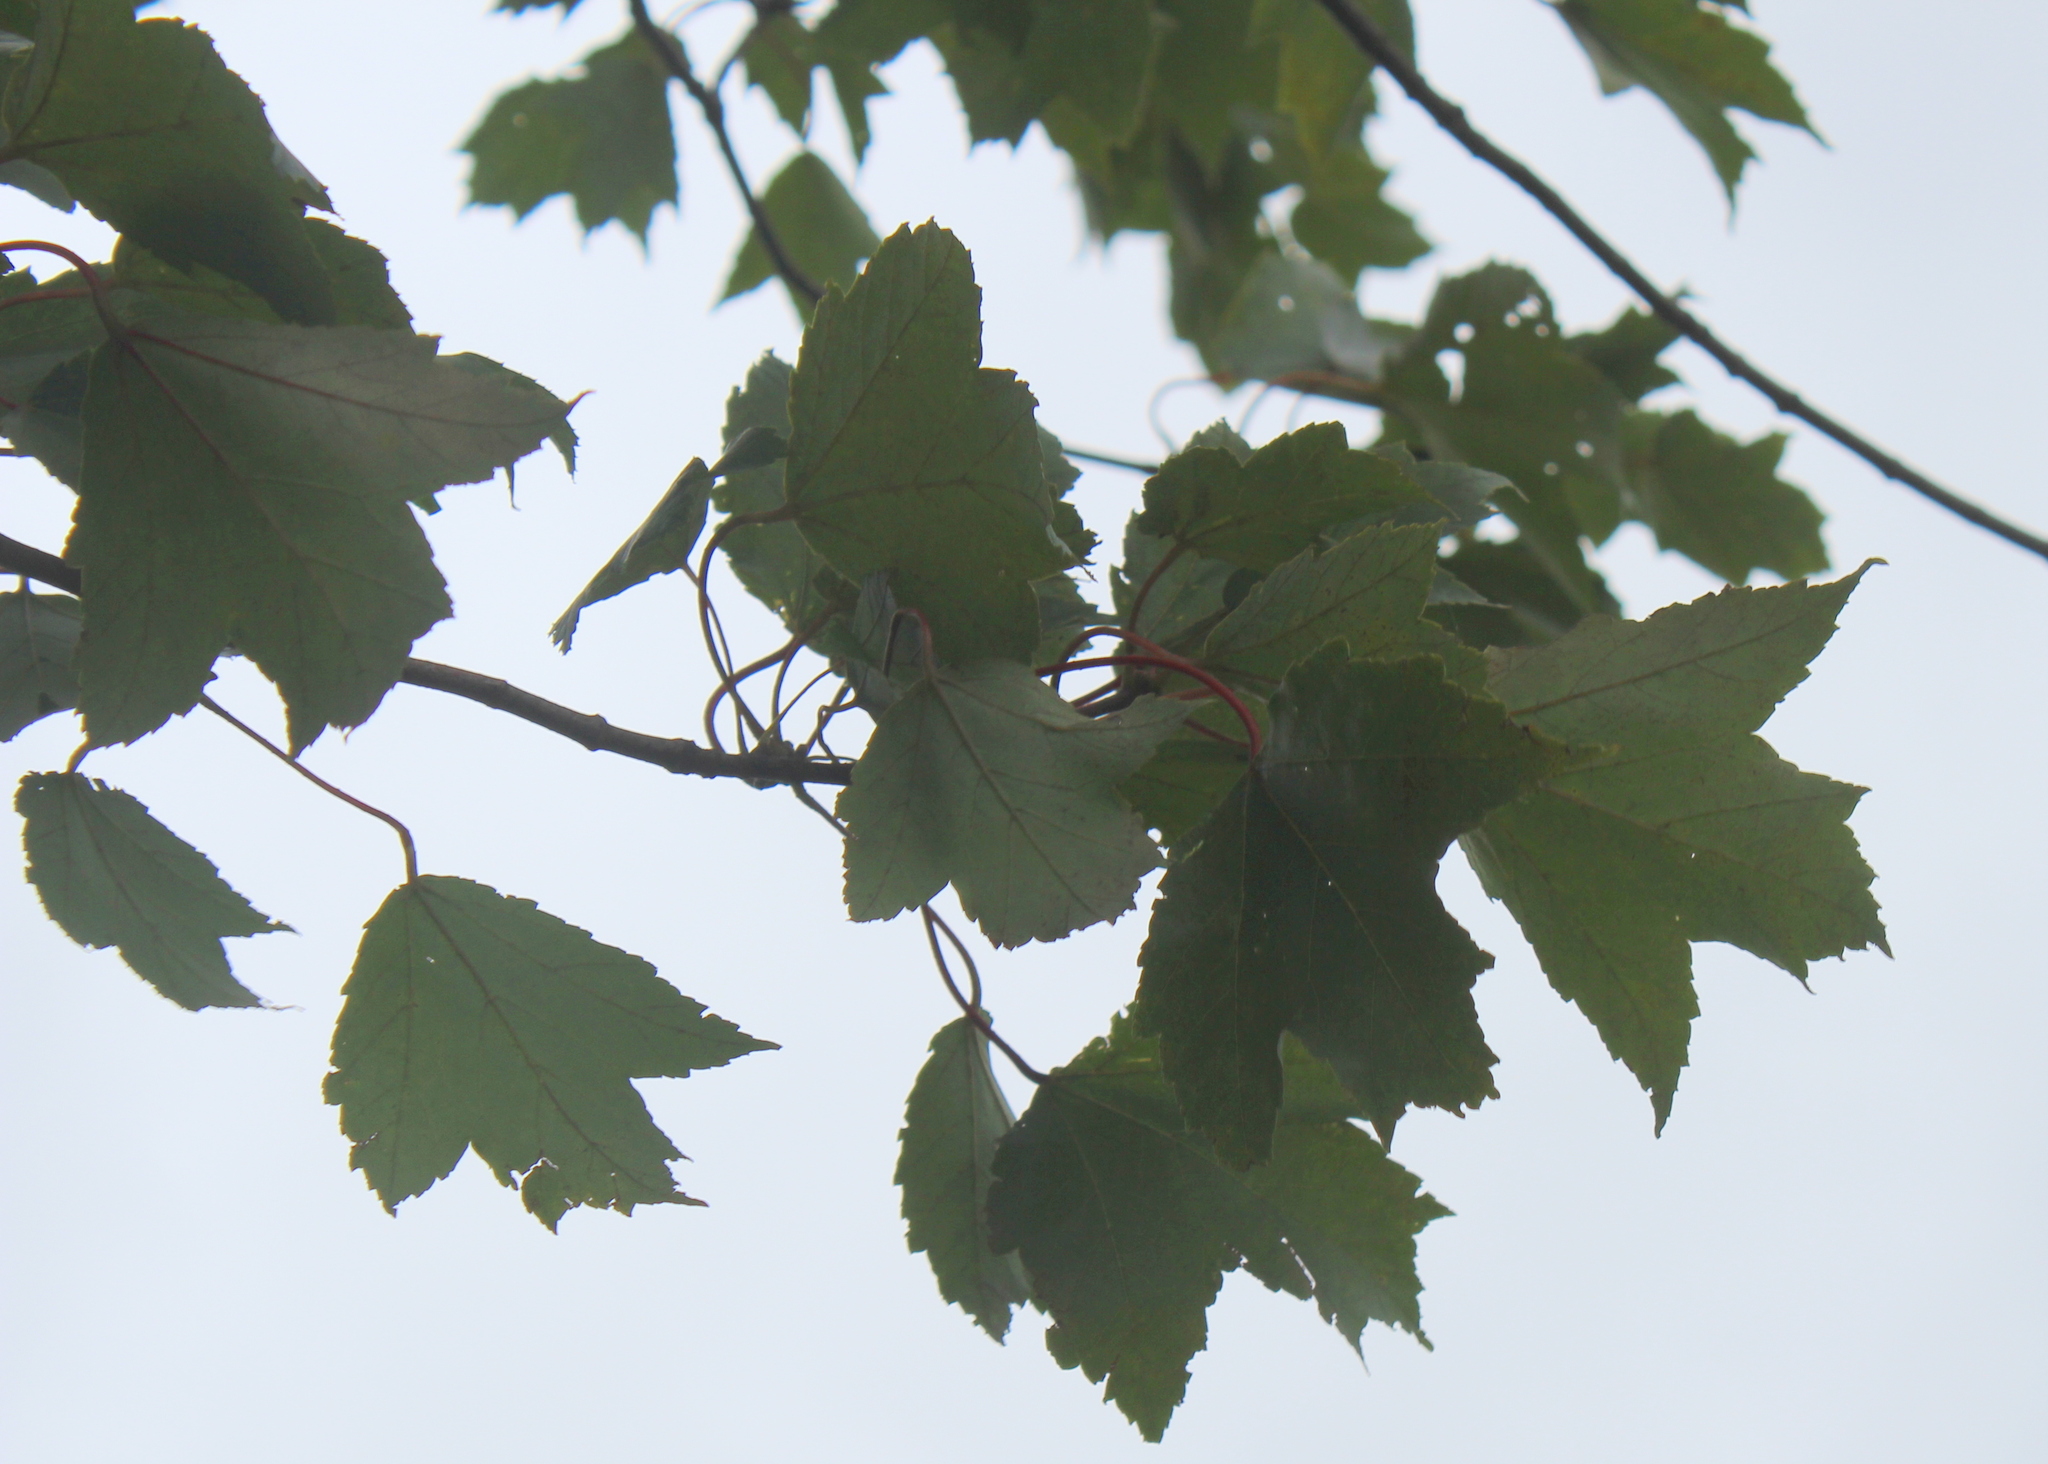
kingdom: Plantae
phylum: Tracheophyta
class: Magnoliopsida
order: Sapindales
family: Sapindaceae
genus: Acer
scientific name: Acer rubrum
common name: Red maple
